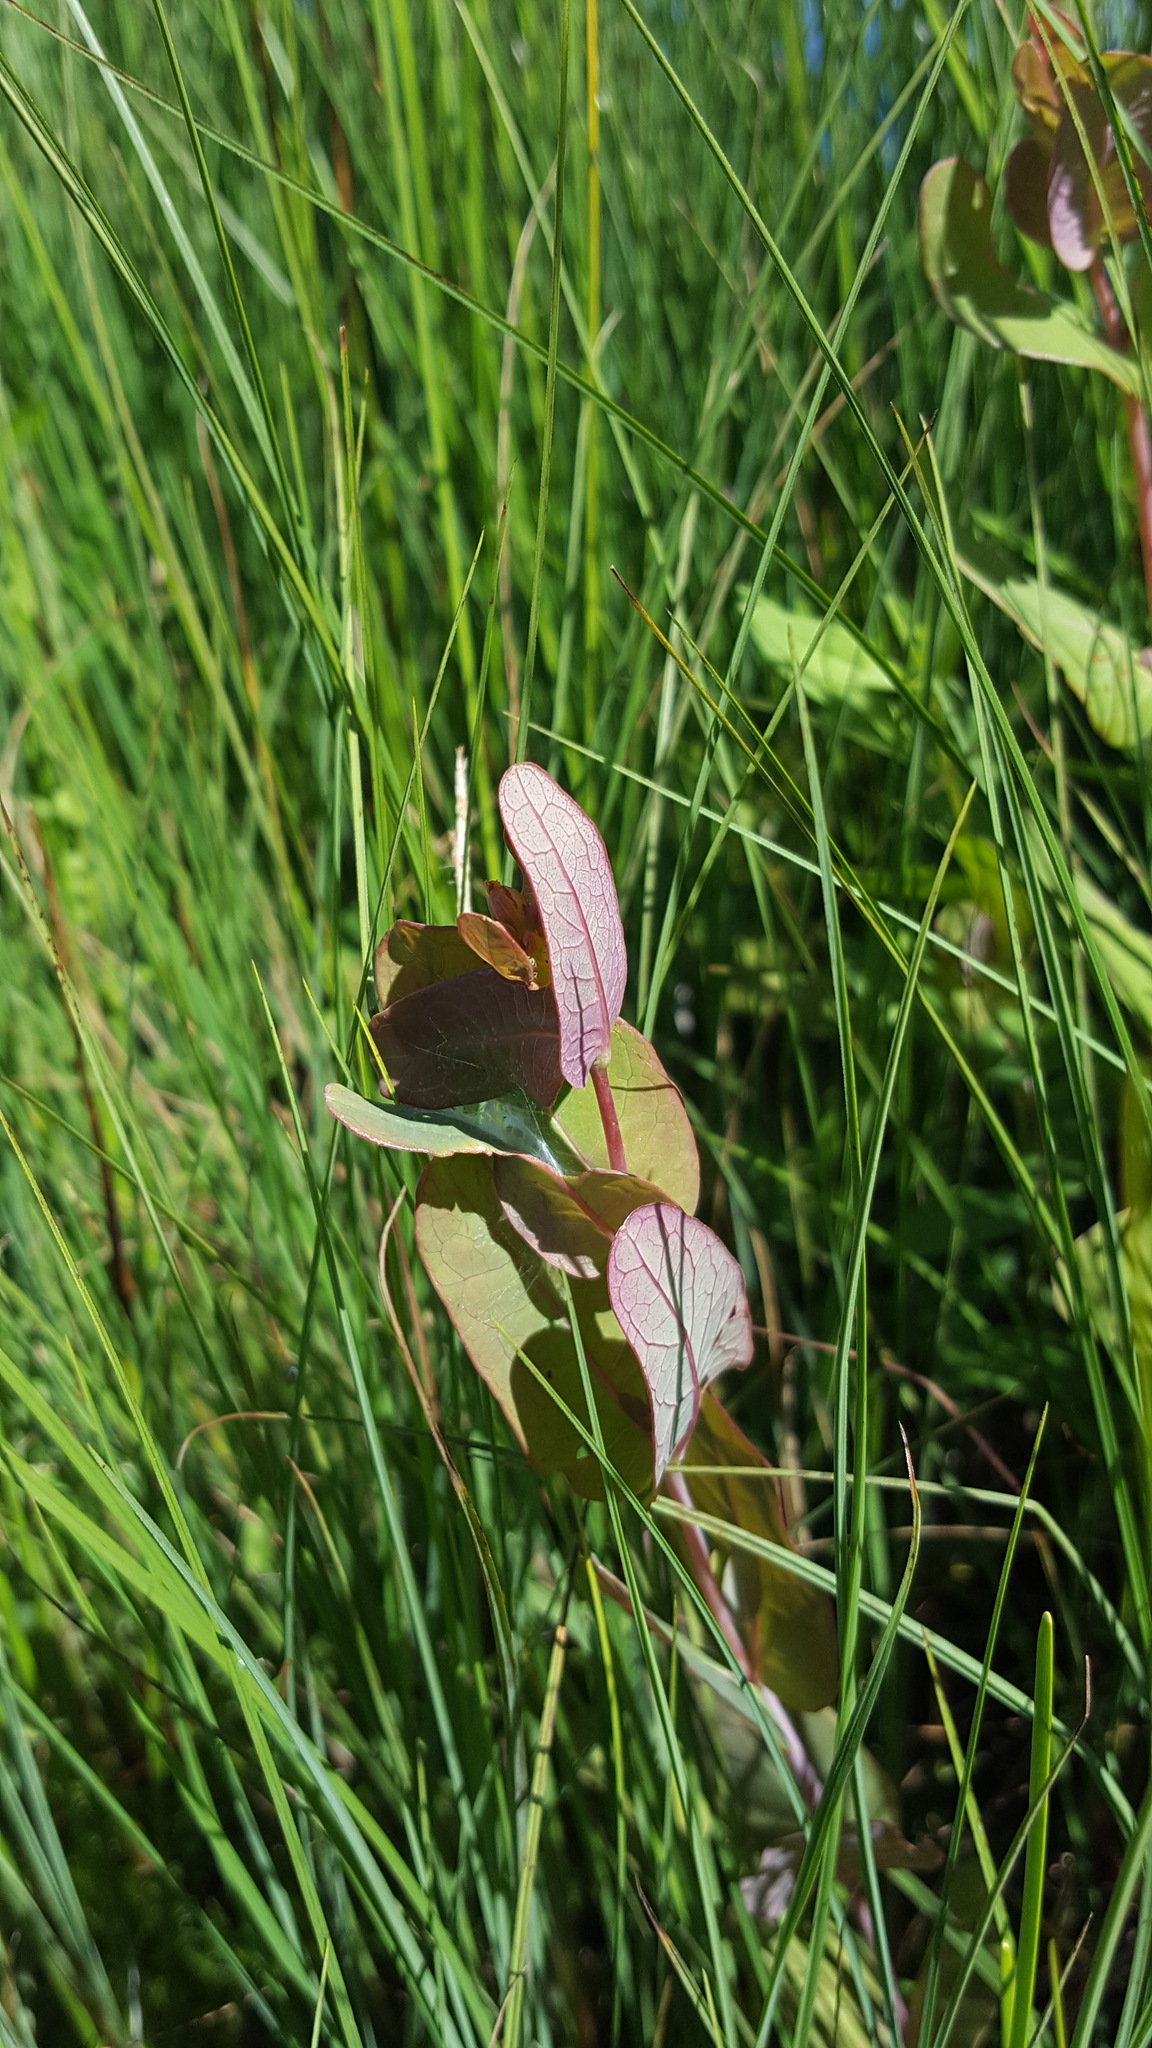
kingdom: Plantae
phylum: Tracheophyta
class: Magnoliopsida
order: Malpighiales
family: Hypericaceae
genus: Triadenum
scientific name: Triadenum fraseri
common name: Fraser's marsh st. johnswort
